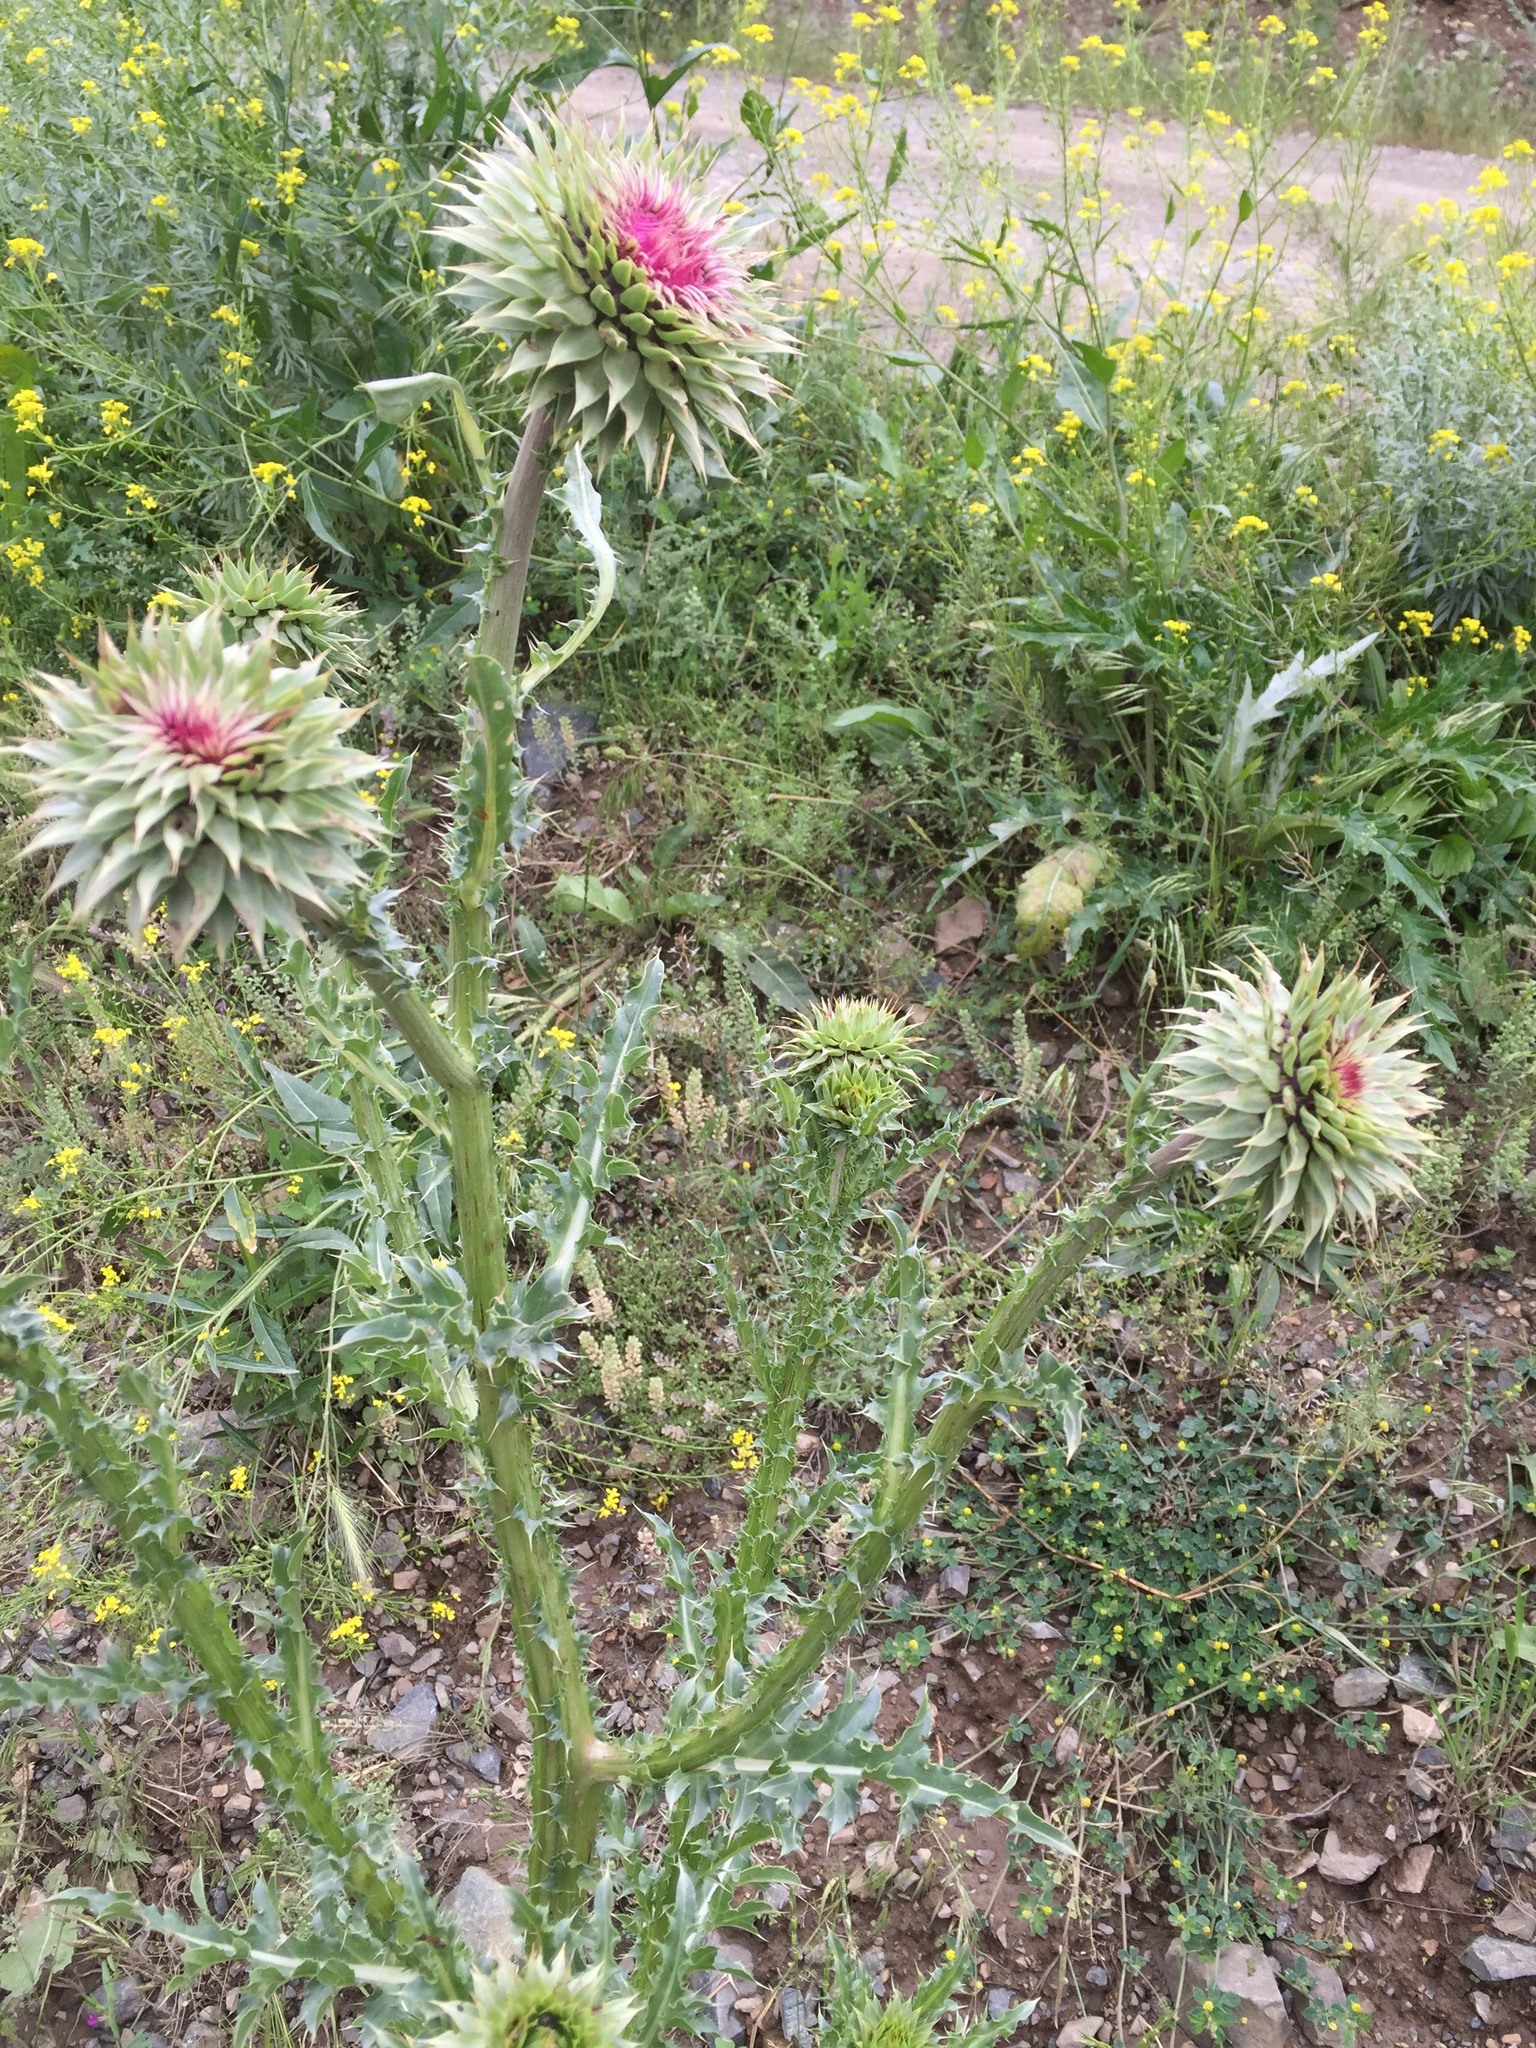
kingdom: Plantae
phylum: Tracheophyta
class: Magnoliopsida
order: Asterales
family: Asteraceae
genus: Carduus
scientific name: Carduus nutans
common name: Musk thistle
